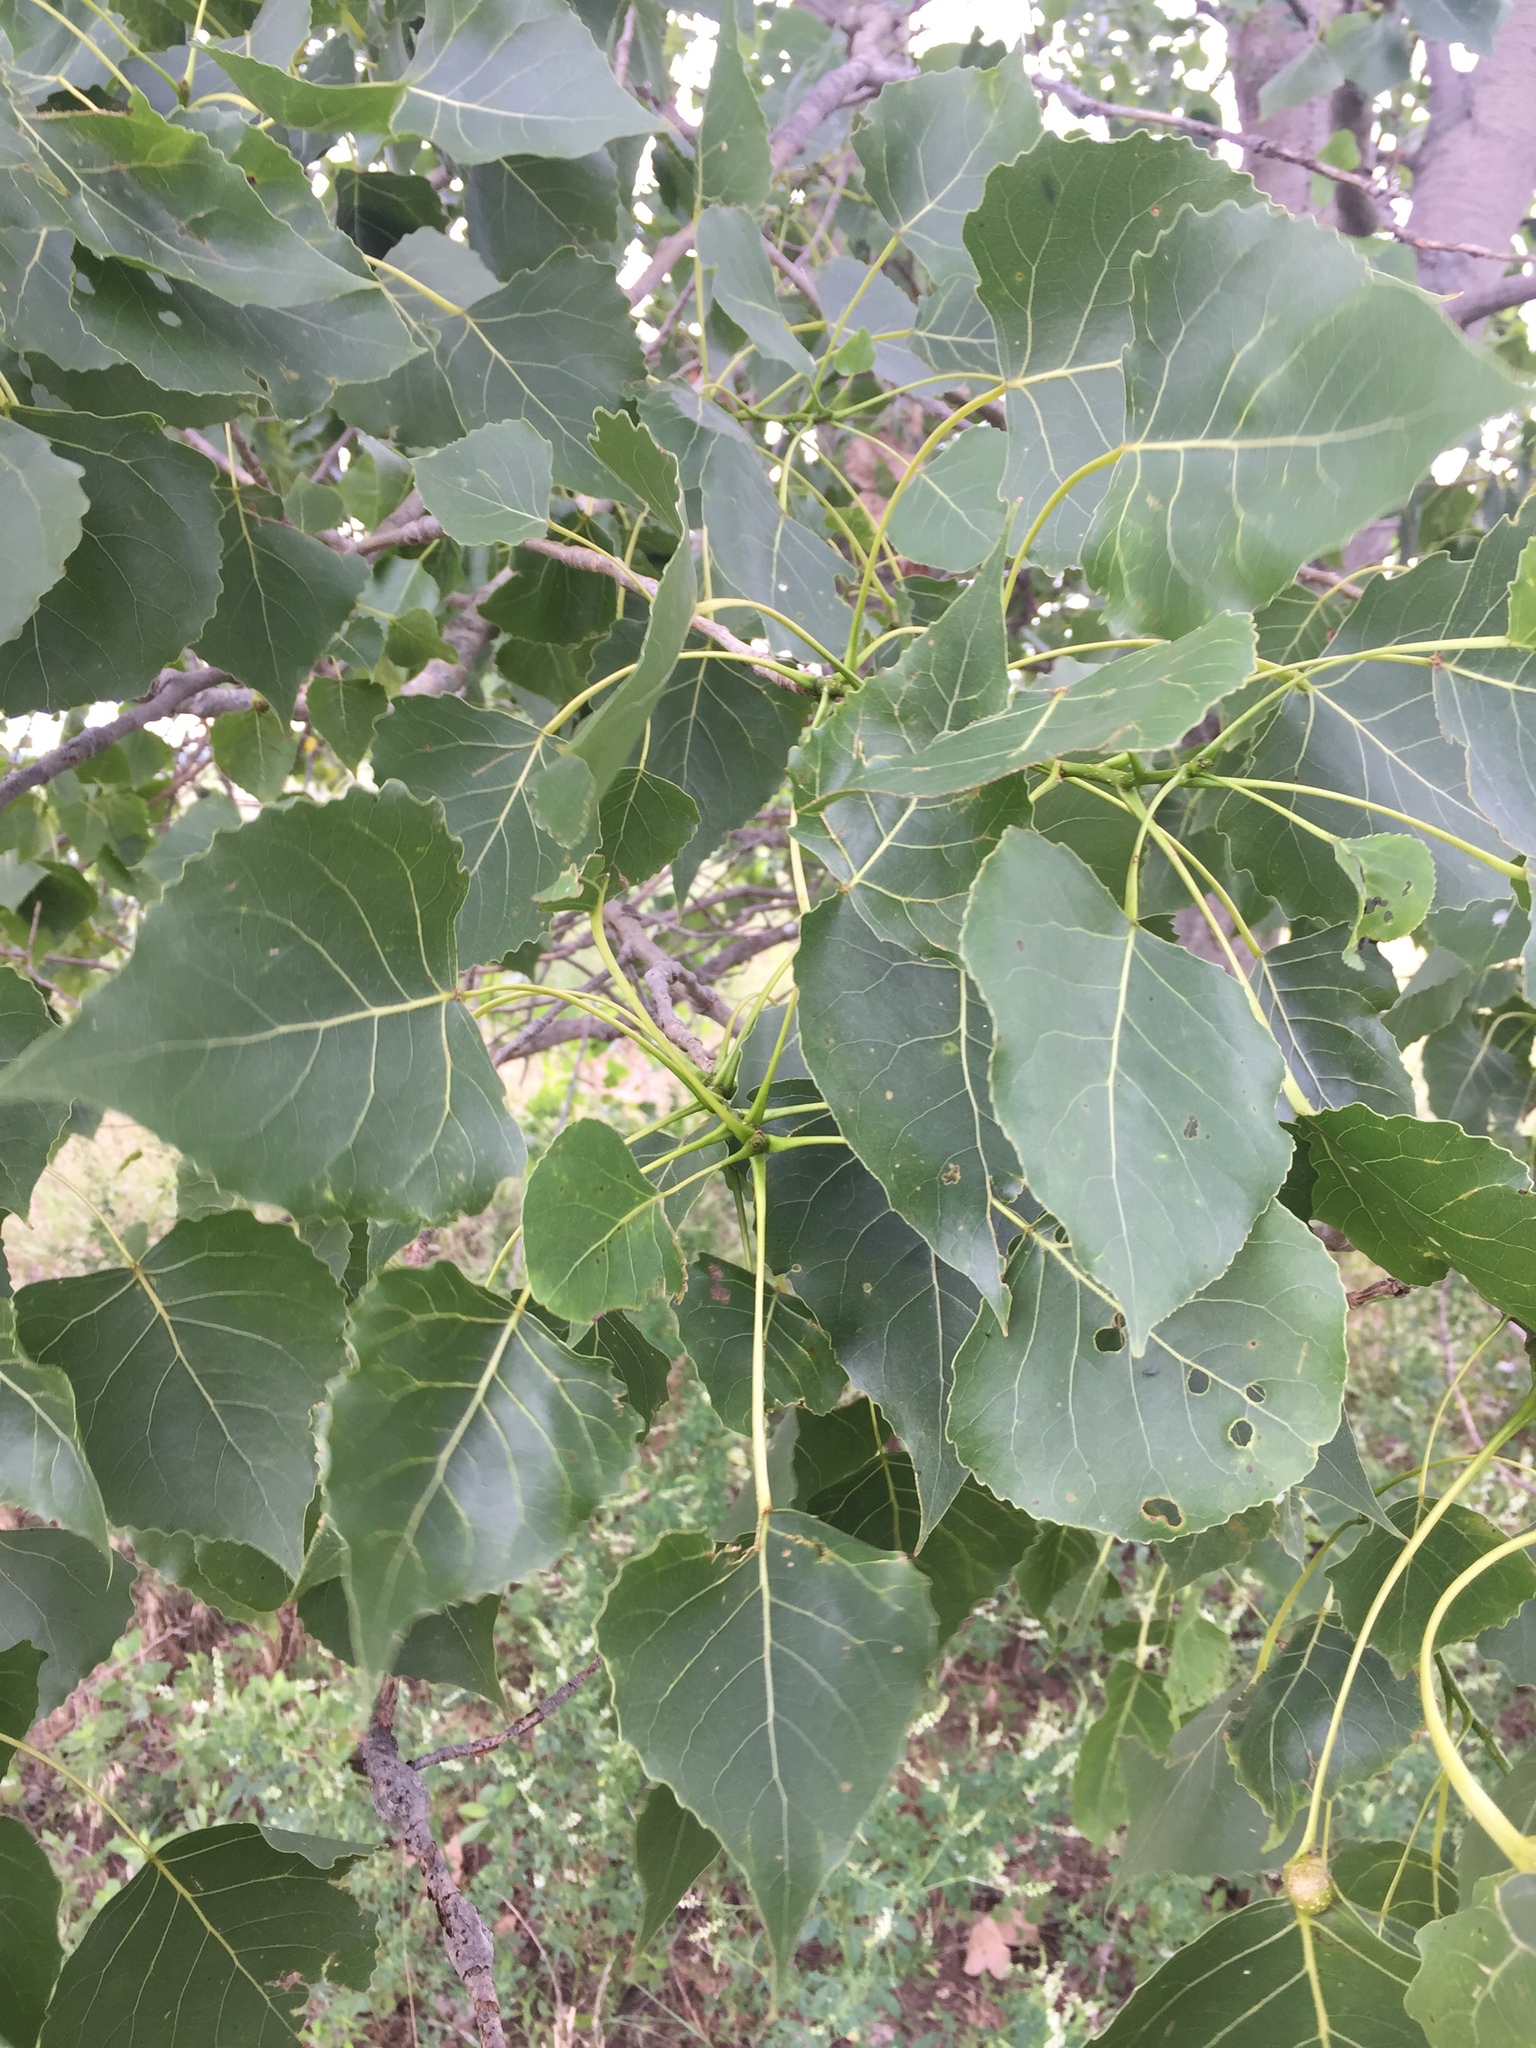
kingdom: Plantae
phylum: Tracheophyta
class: Magnoliopsida
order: Malpighiales
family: Salicaceae
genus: Populus
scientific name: Populus deltoides
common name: Eastern cottonwood
